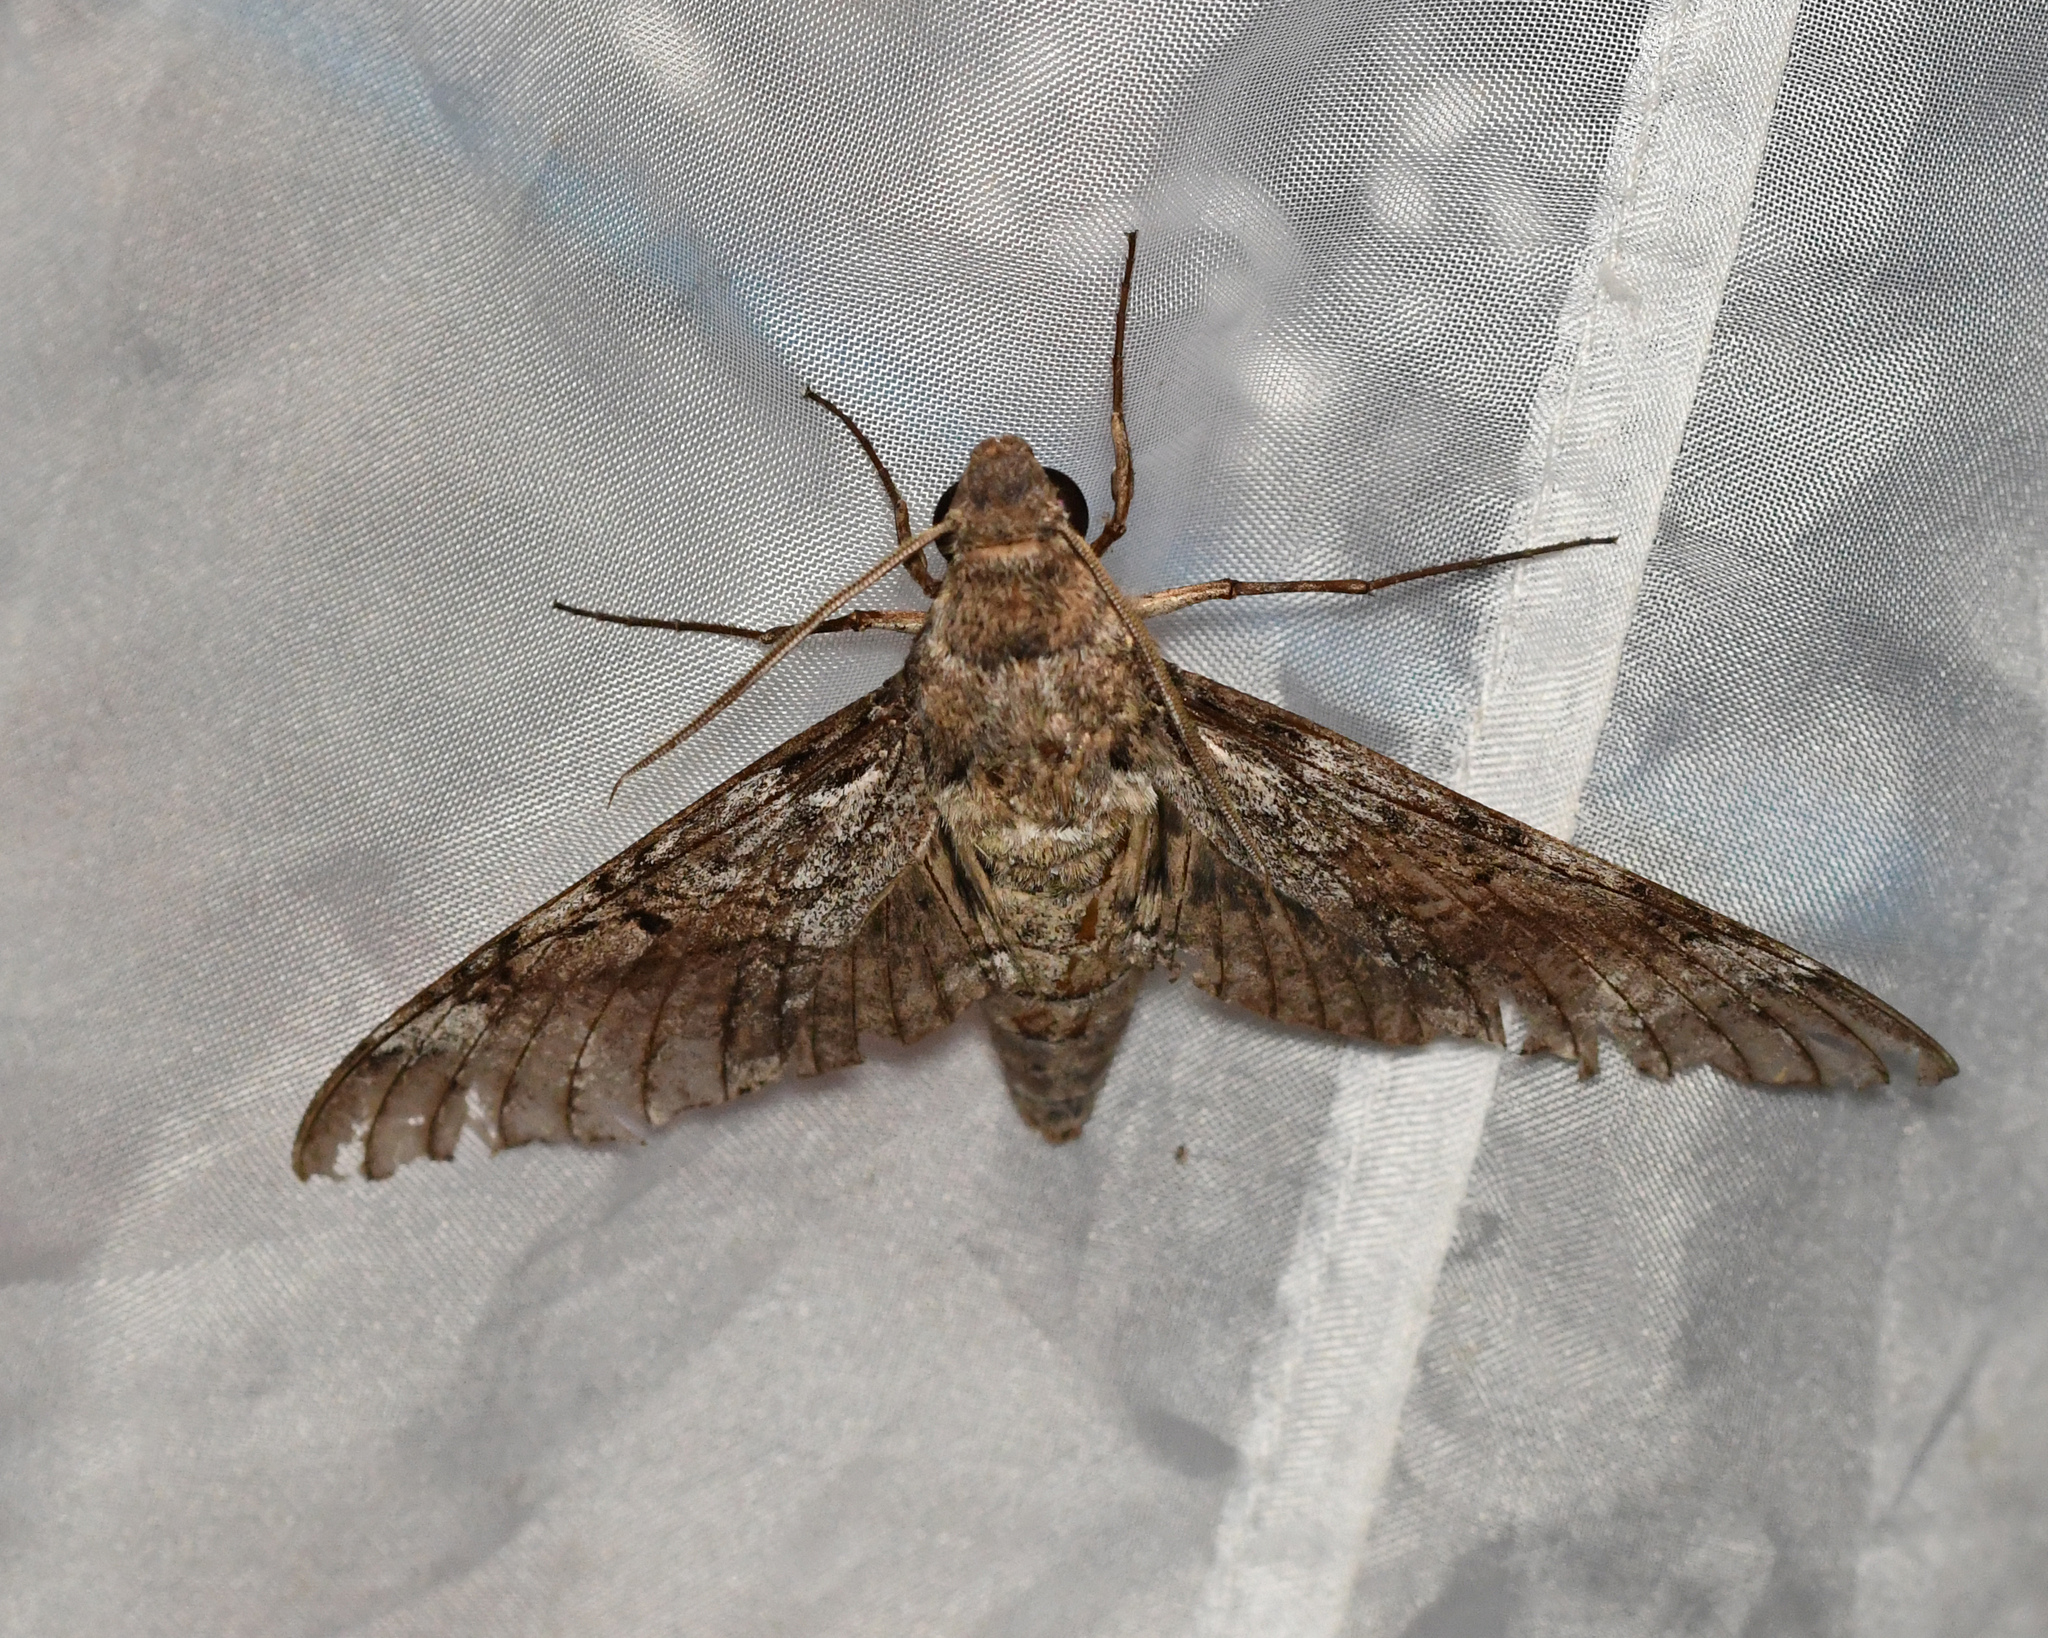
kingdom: Animalia
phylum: Arthropoda
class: Insecta
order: Lepidoptera
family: Sphingidae
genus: Pseudosphinx
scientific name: Pseudosphinx tetrio
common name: Tetrio sphinx
